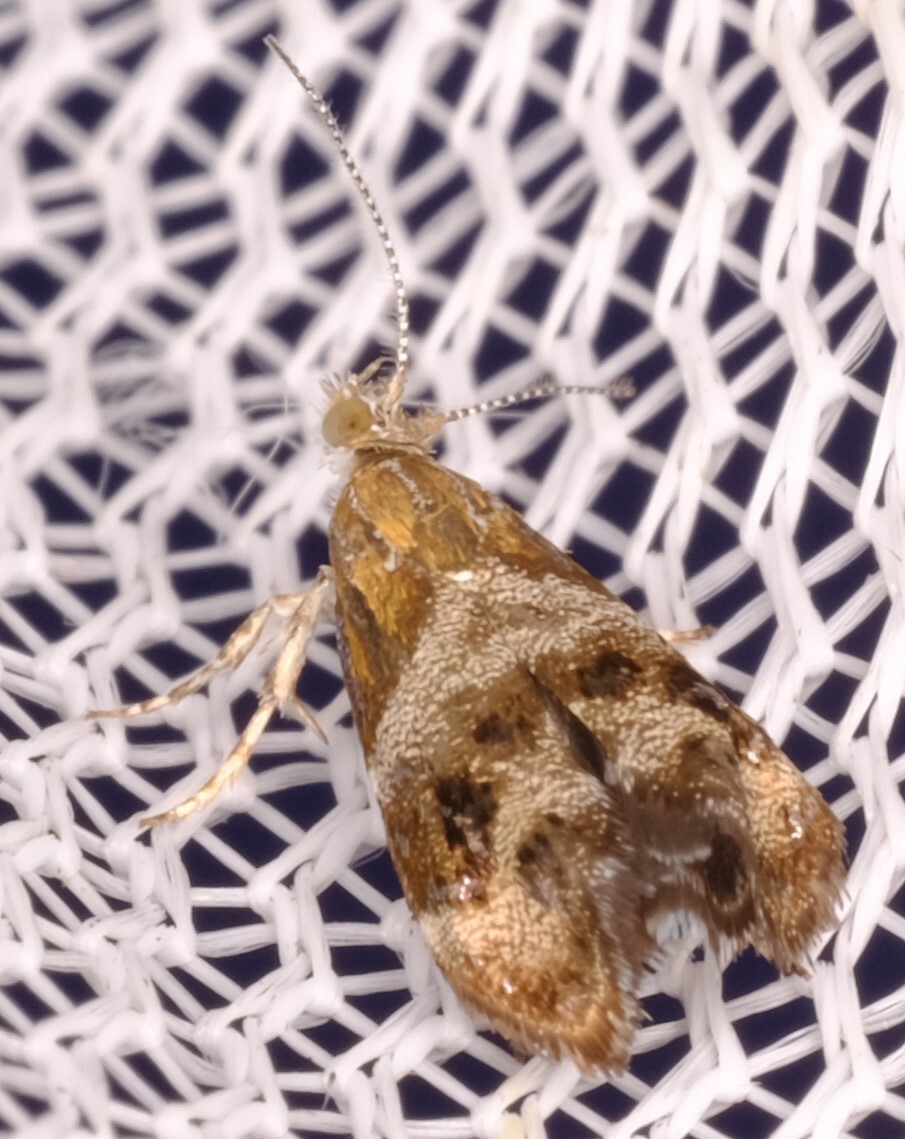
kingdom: Animalia
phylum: Arthropoda
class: Insecta
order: Lepidoptera
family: Choreutidae
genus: Tebenna
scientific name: Tebenna micalis
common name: Vagrant twitcher
